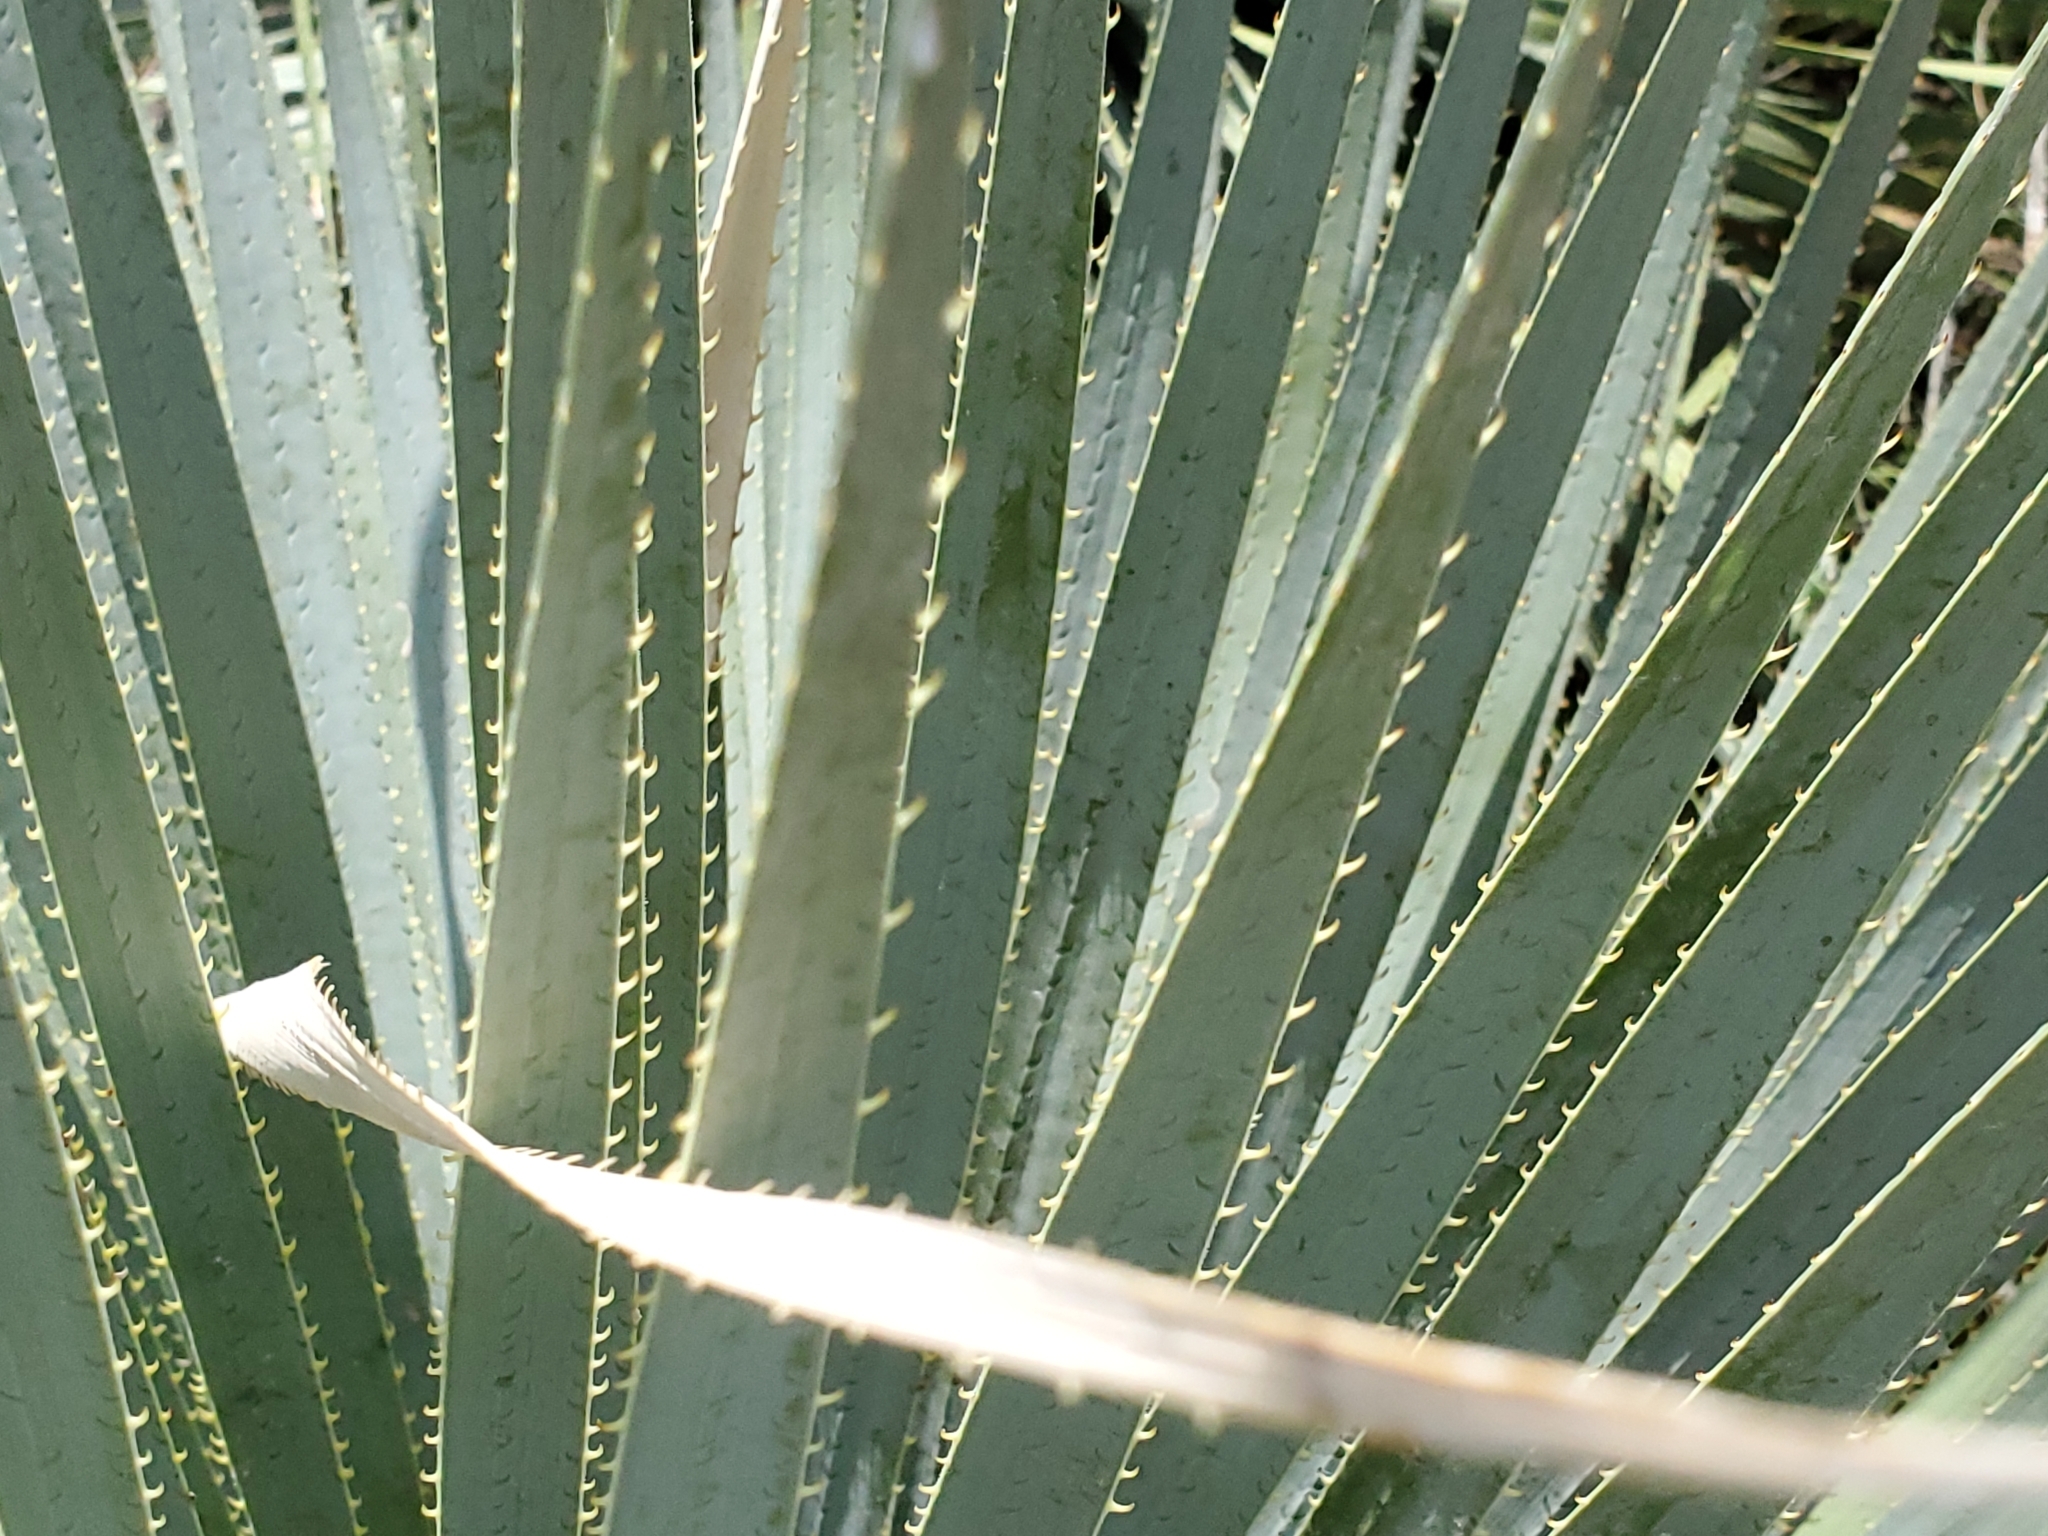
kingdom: Plantae
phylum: Tracheophyta
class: Liliopsida
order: Asparagales
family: Asparagaceae
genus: Dasylirion
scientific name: Dasylirion wheeleri
